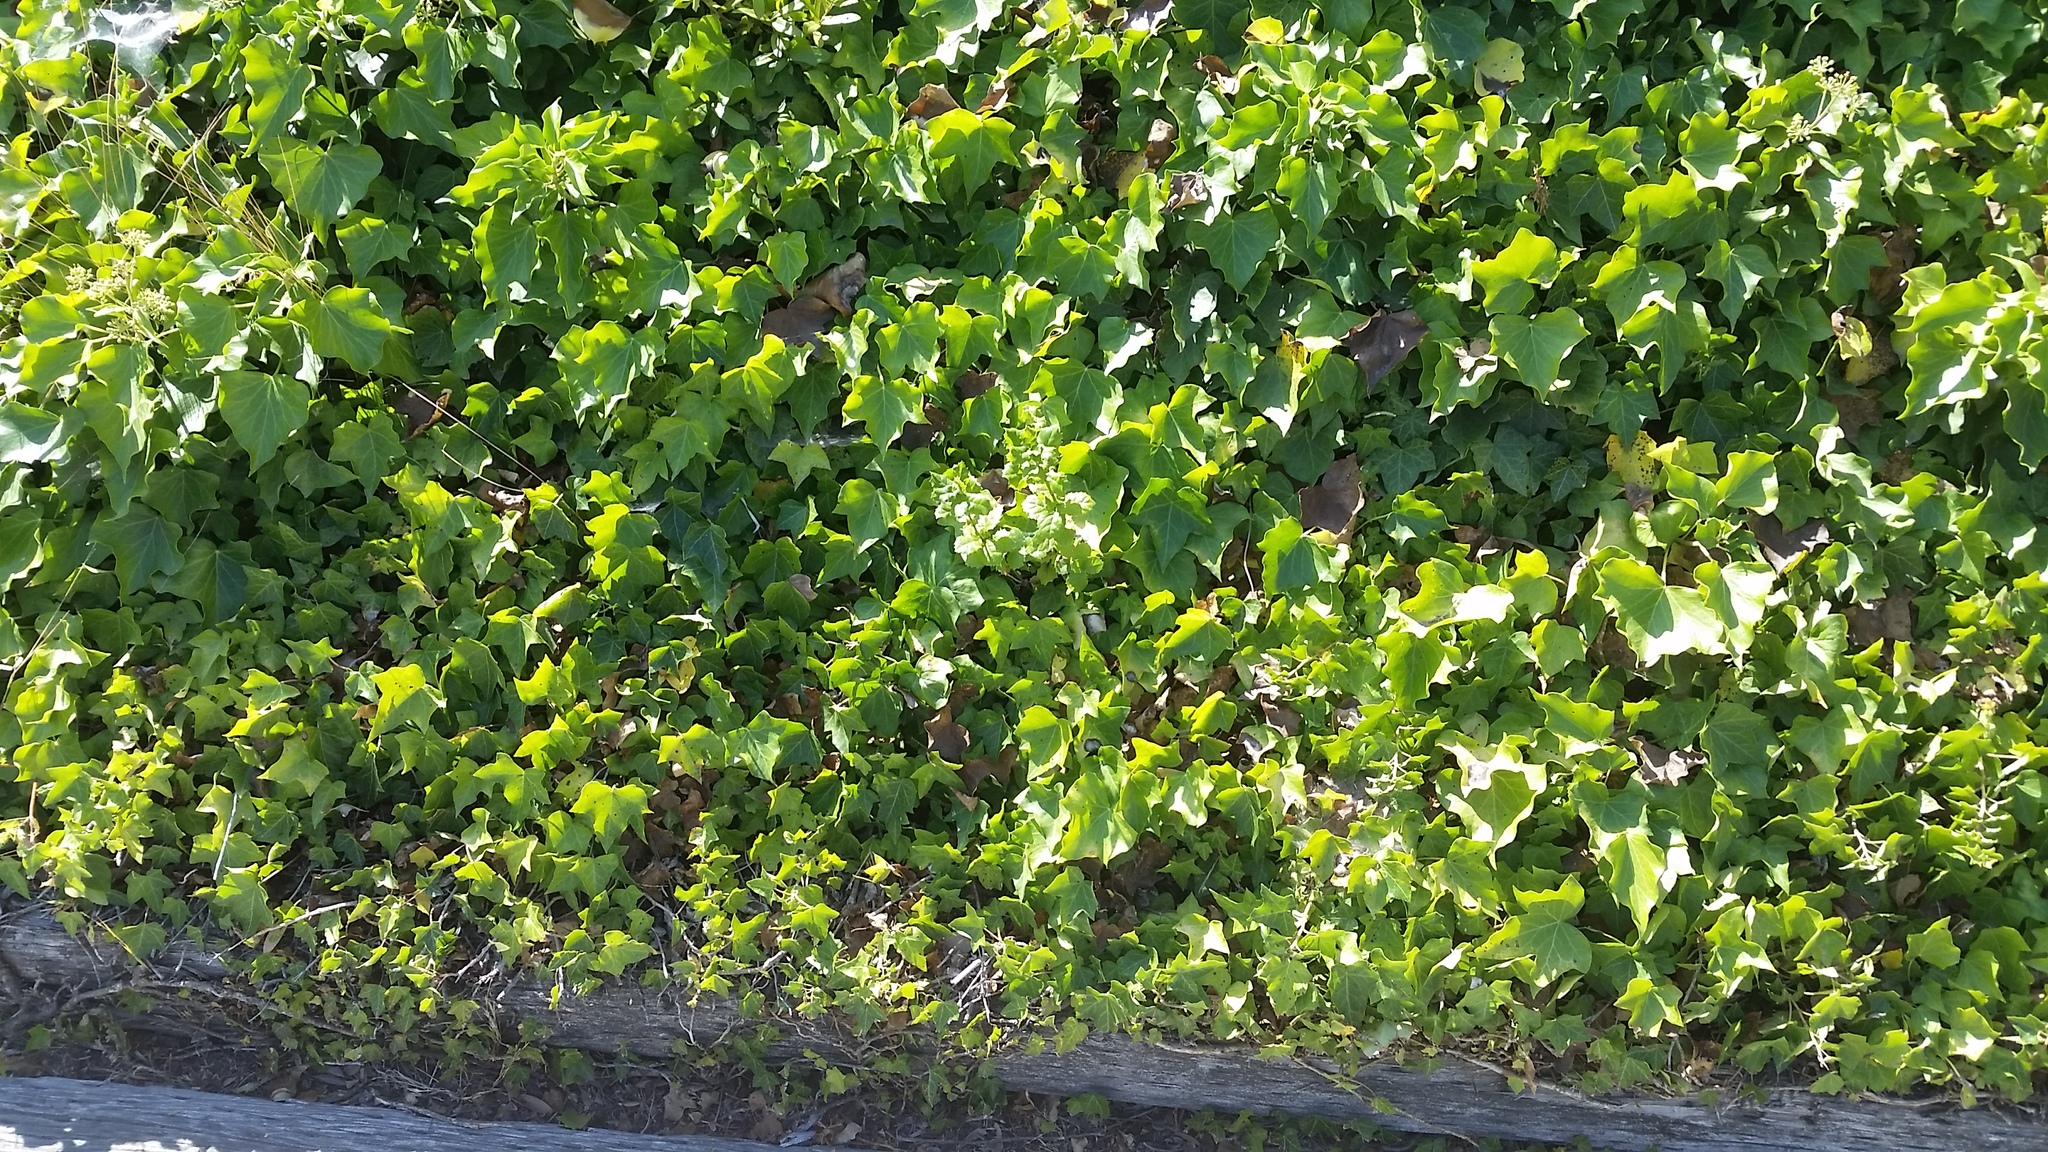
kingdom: Plantae
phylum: Tracheophyta
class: Magnoliopsida
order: Fagales
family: Fagaceae
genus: Quercus
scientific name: Quercus agrifolia
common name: California live oak
